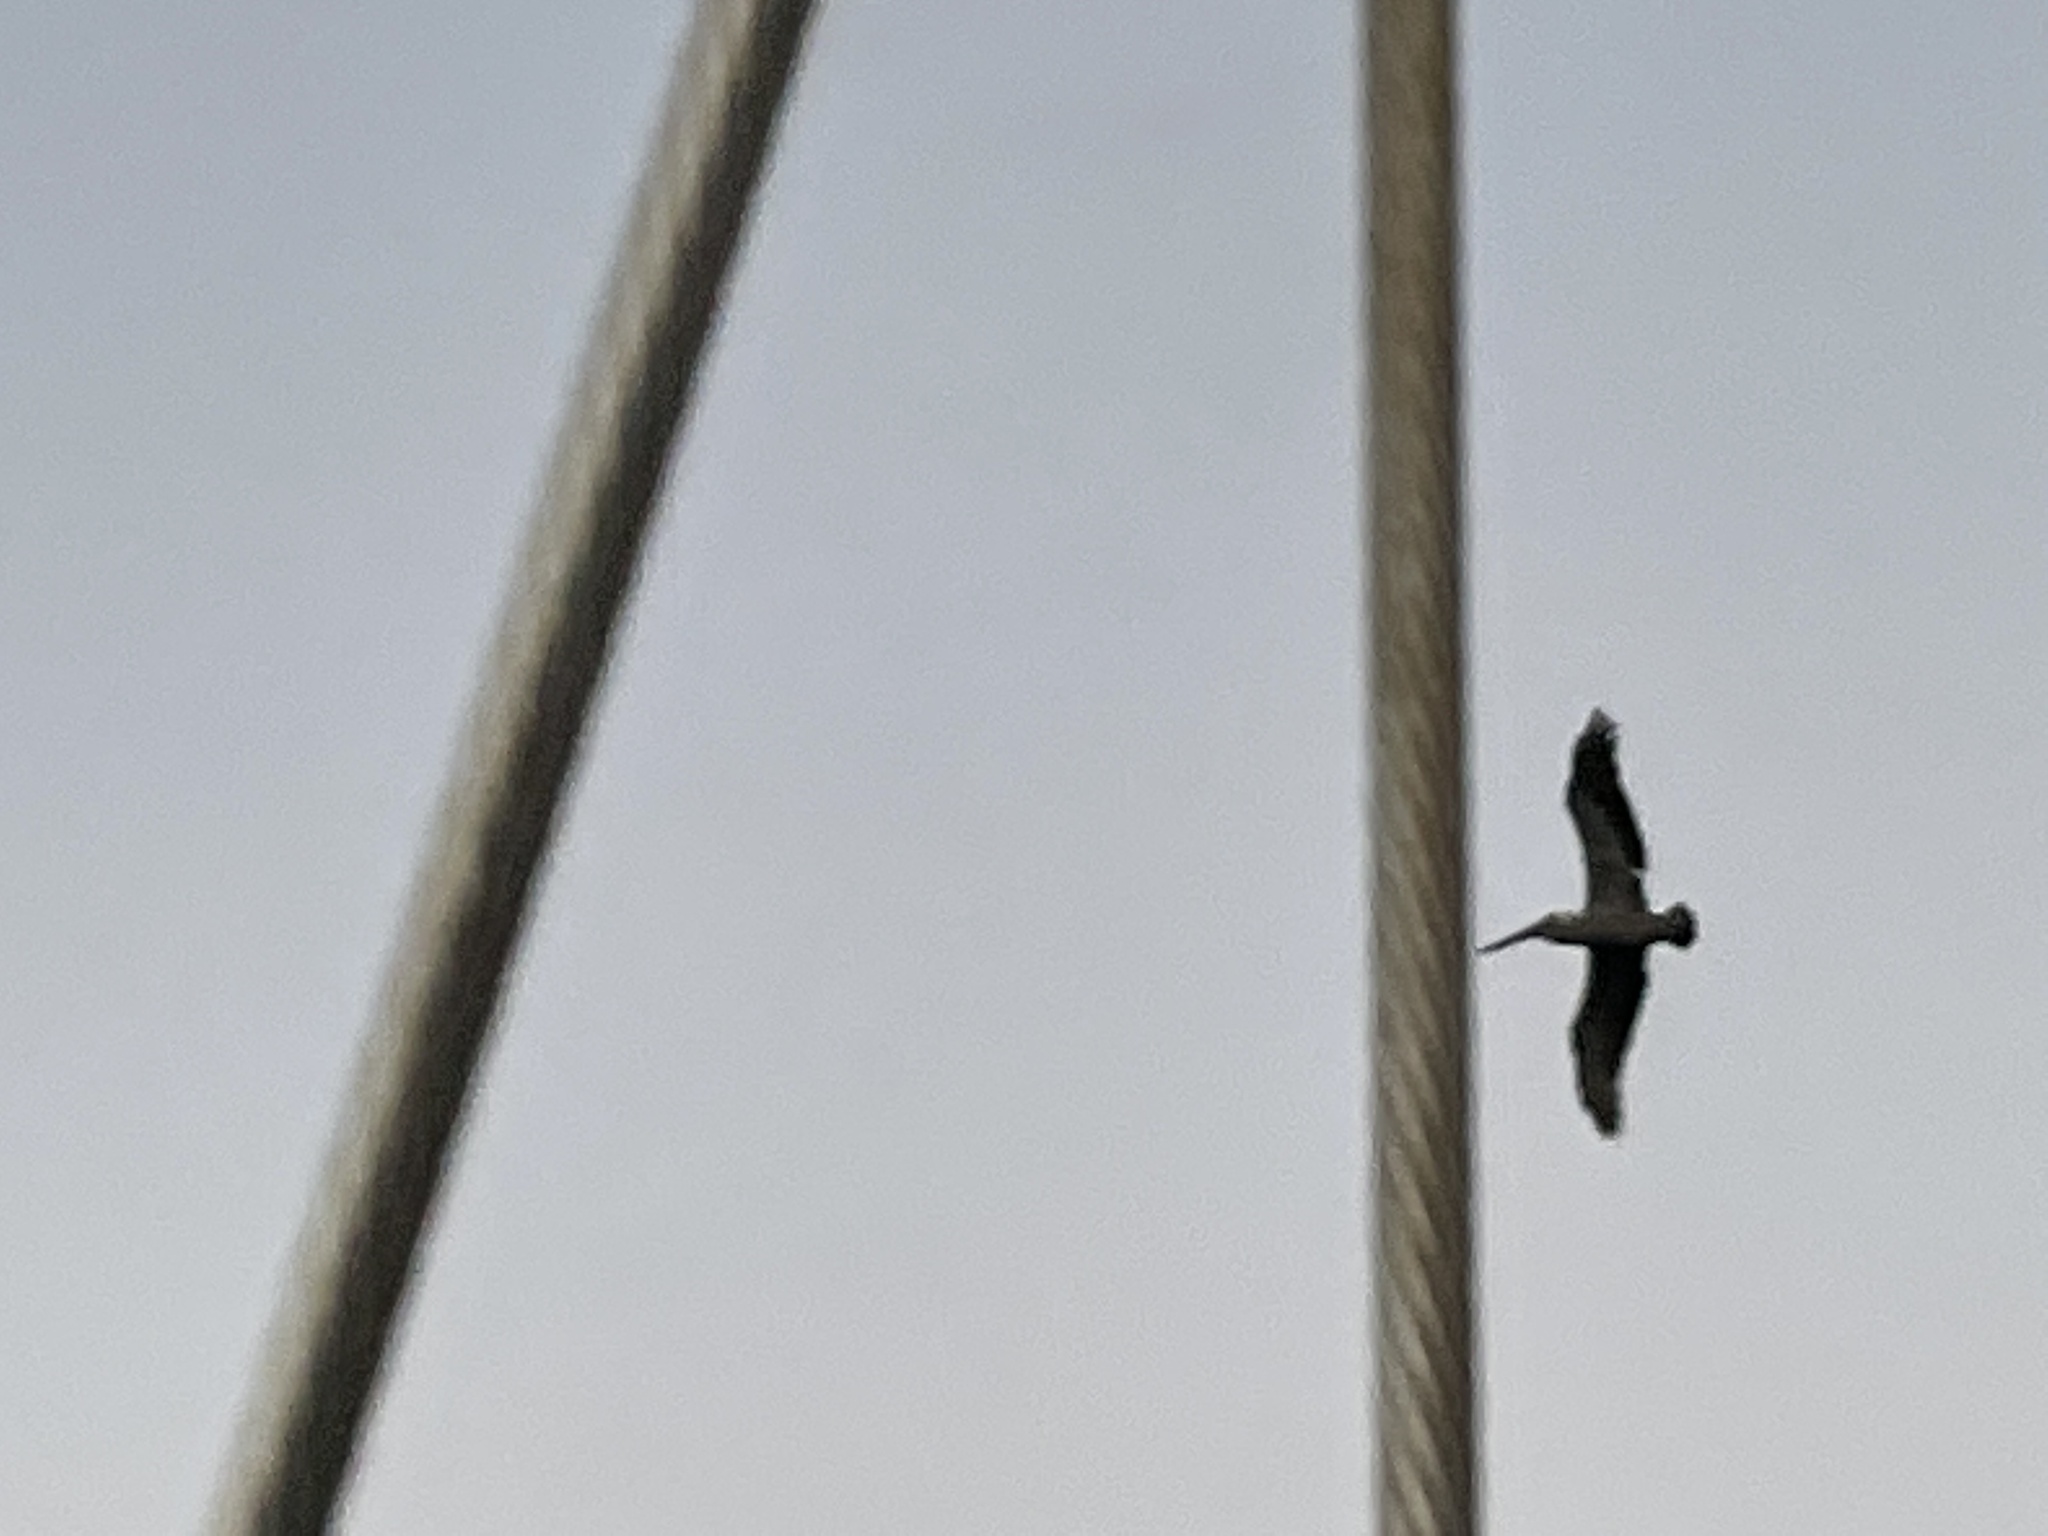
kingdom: Animalia
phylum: Chordata
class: Aves
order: Pelecaniformes
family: Pelecanidae
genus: Pelecanus
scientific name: Pelecanus occidentalis
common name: Brown pelican
